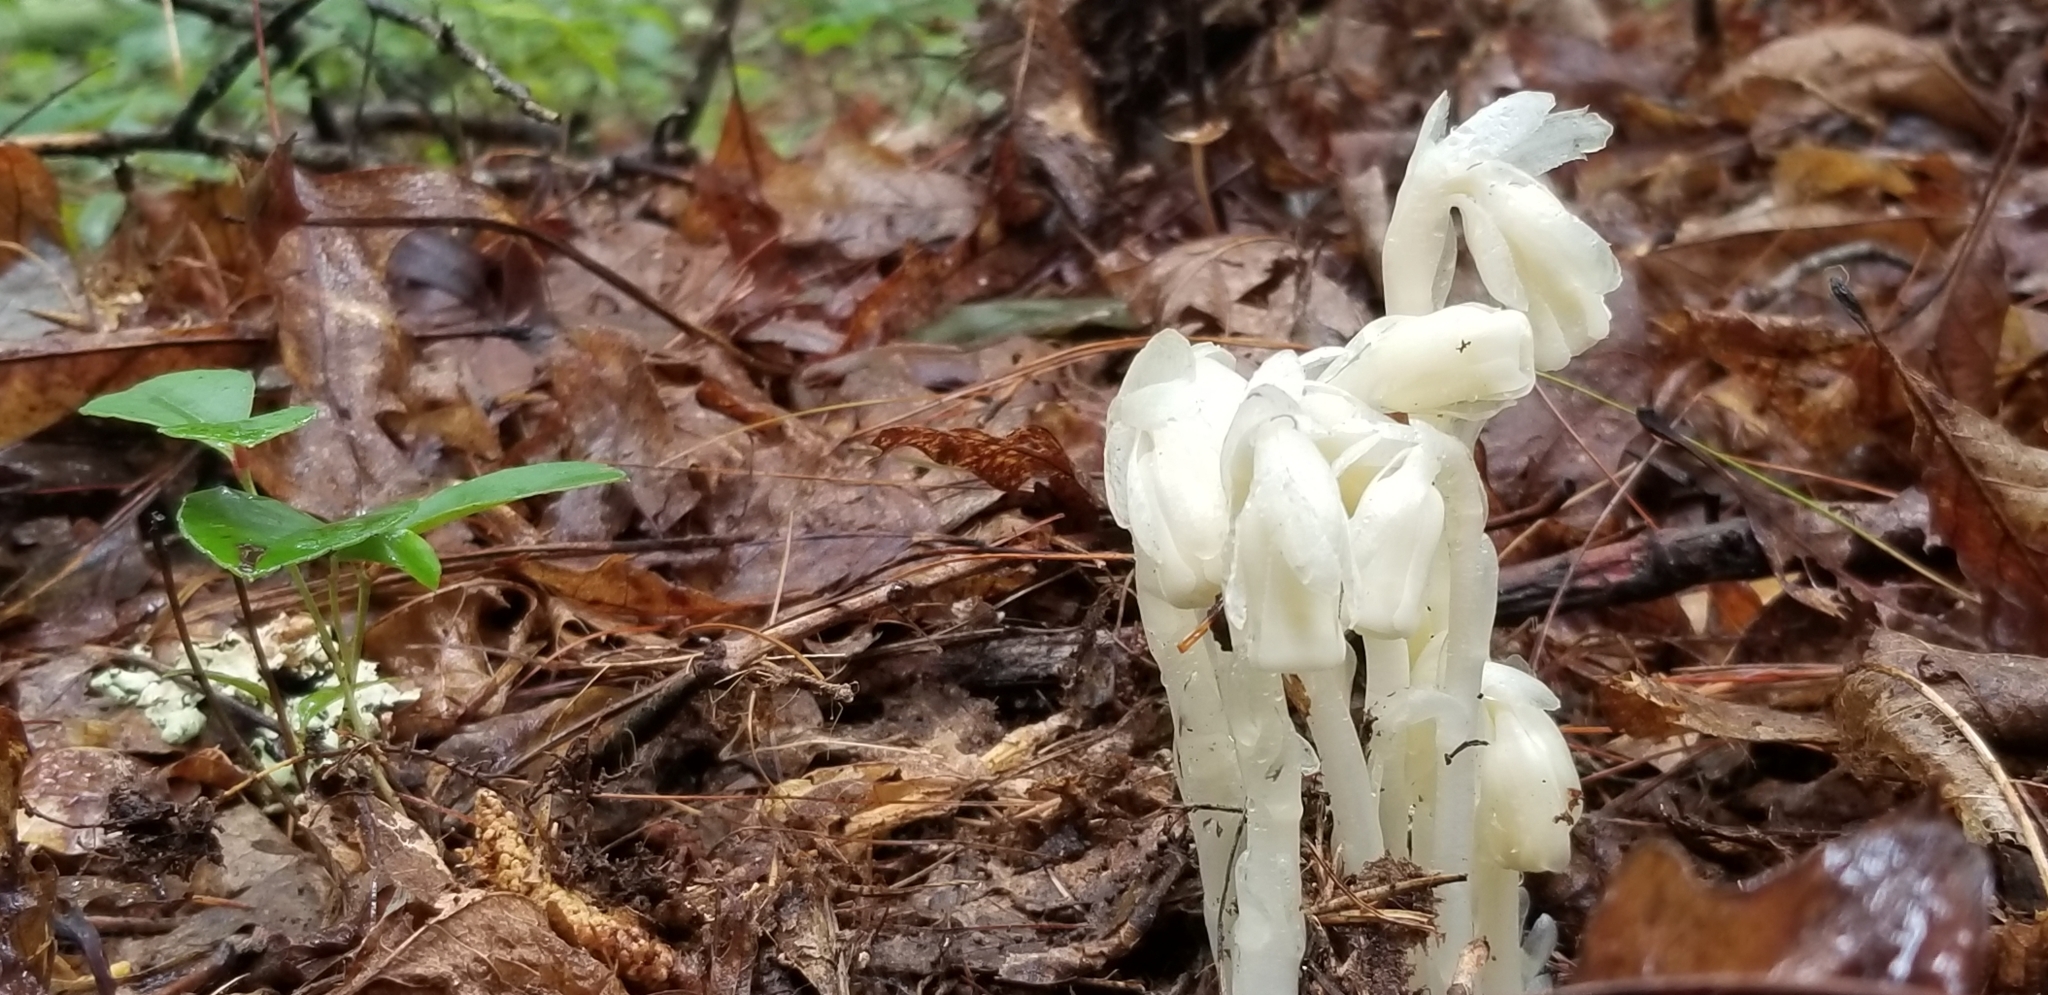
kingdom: Plantae
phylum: Tracheophyta
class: Magnoliopsida
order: Ericales
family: Ericaceae
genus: Monotropa
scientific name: Monotropa uniflora
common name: Convulsion root
